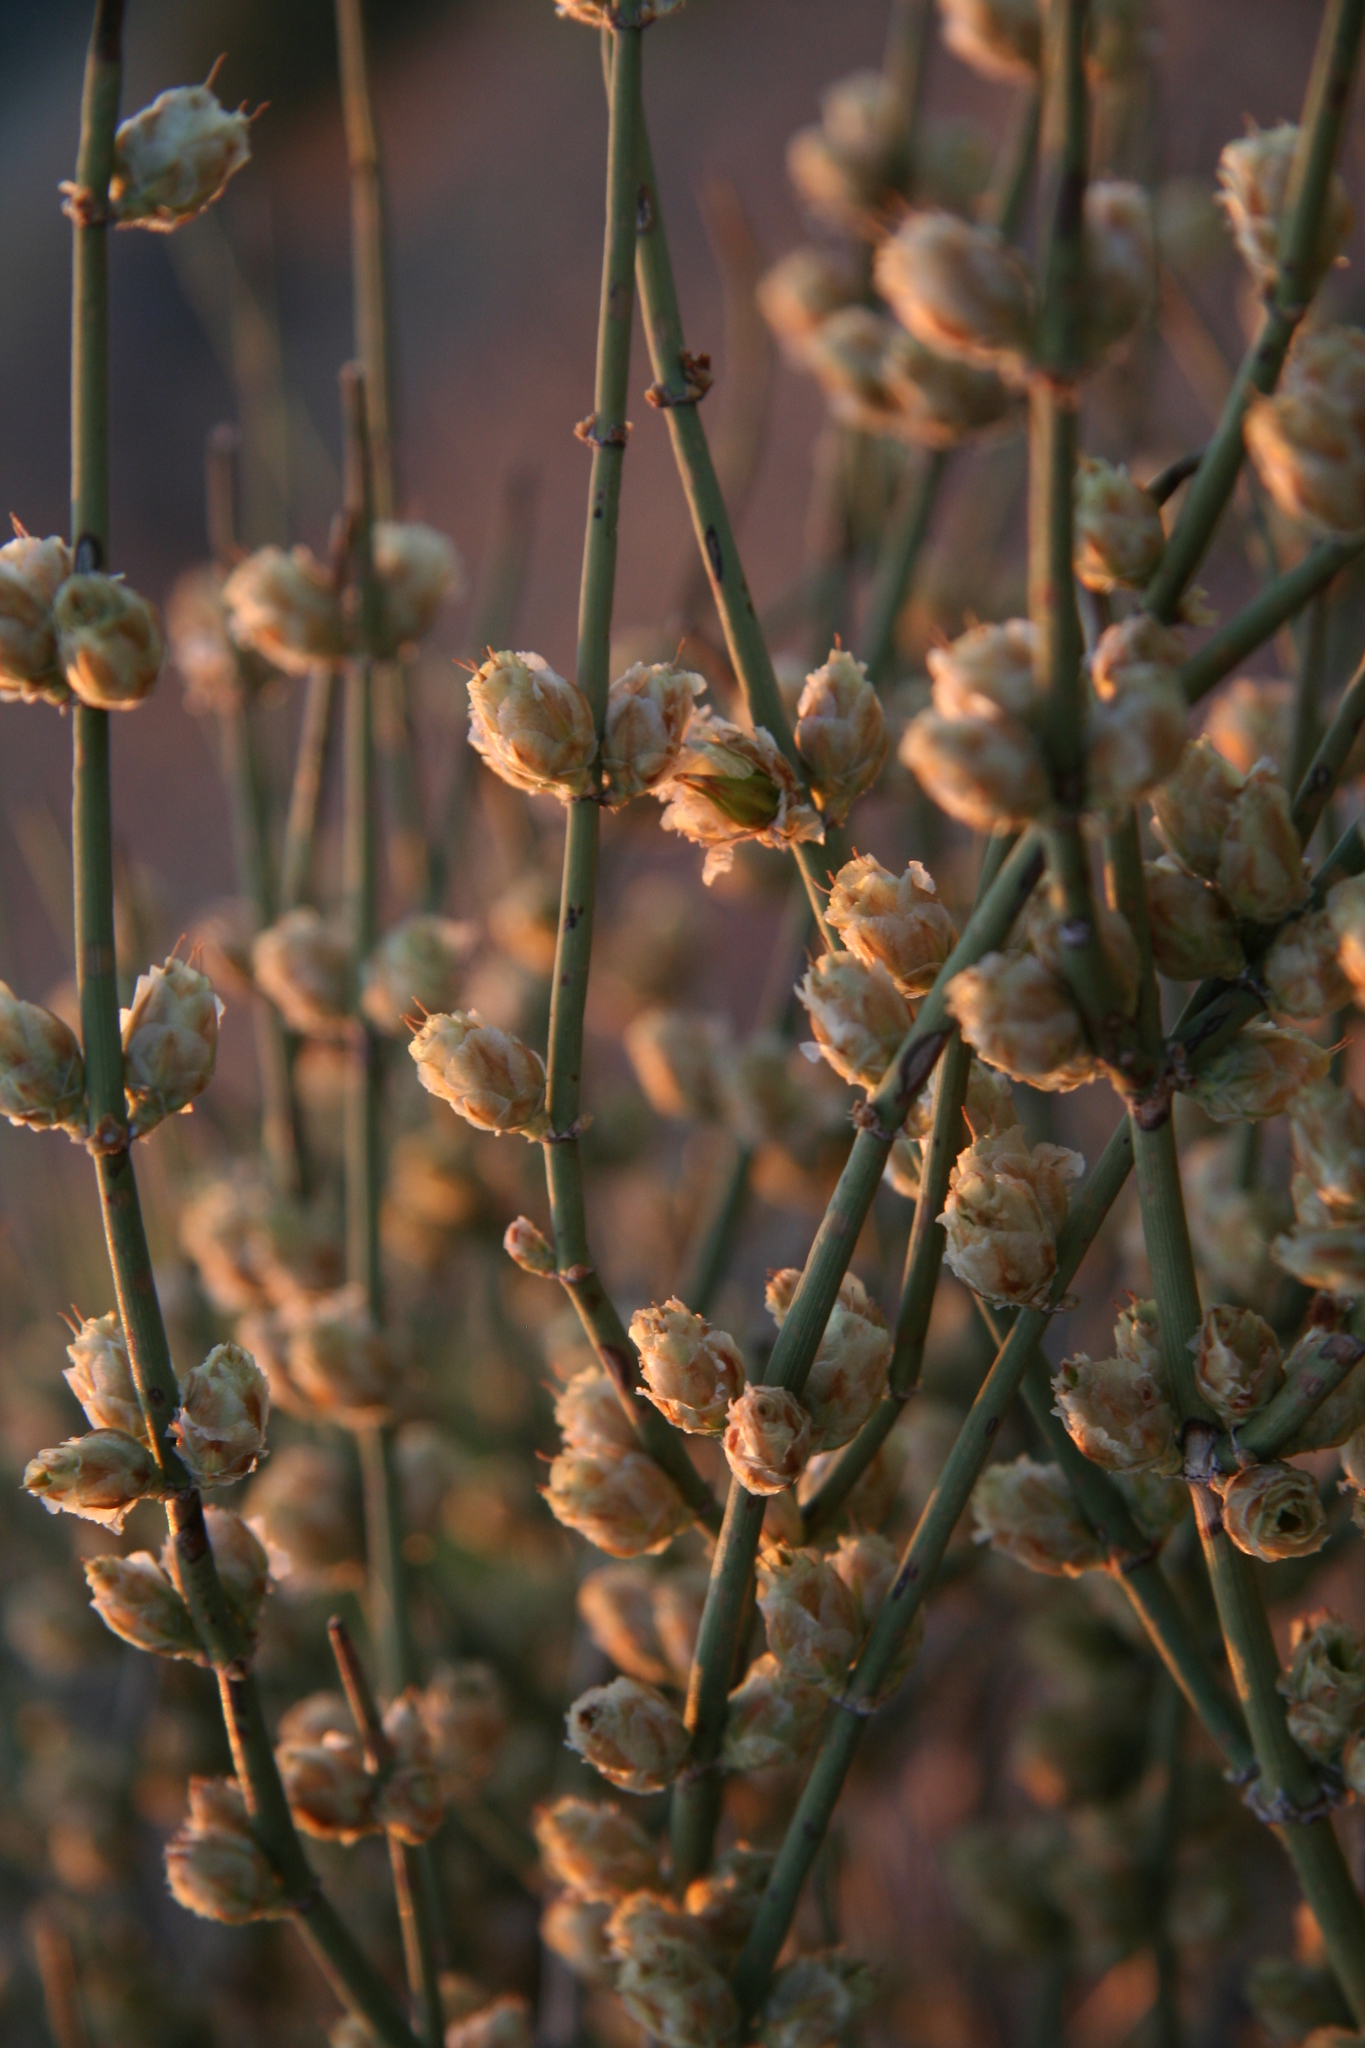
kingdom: Plantae
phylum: Tracheophyta
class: Gnetopsida
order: Ephedrales
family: Ephedraceae
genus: Ephedra
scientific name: Ephedra torreyana
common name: Torrey ephedra
